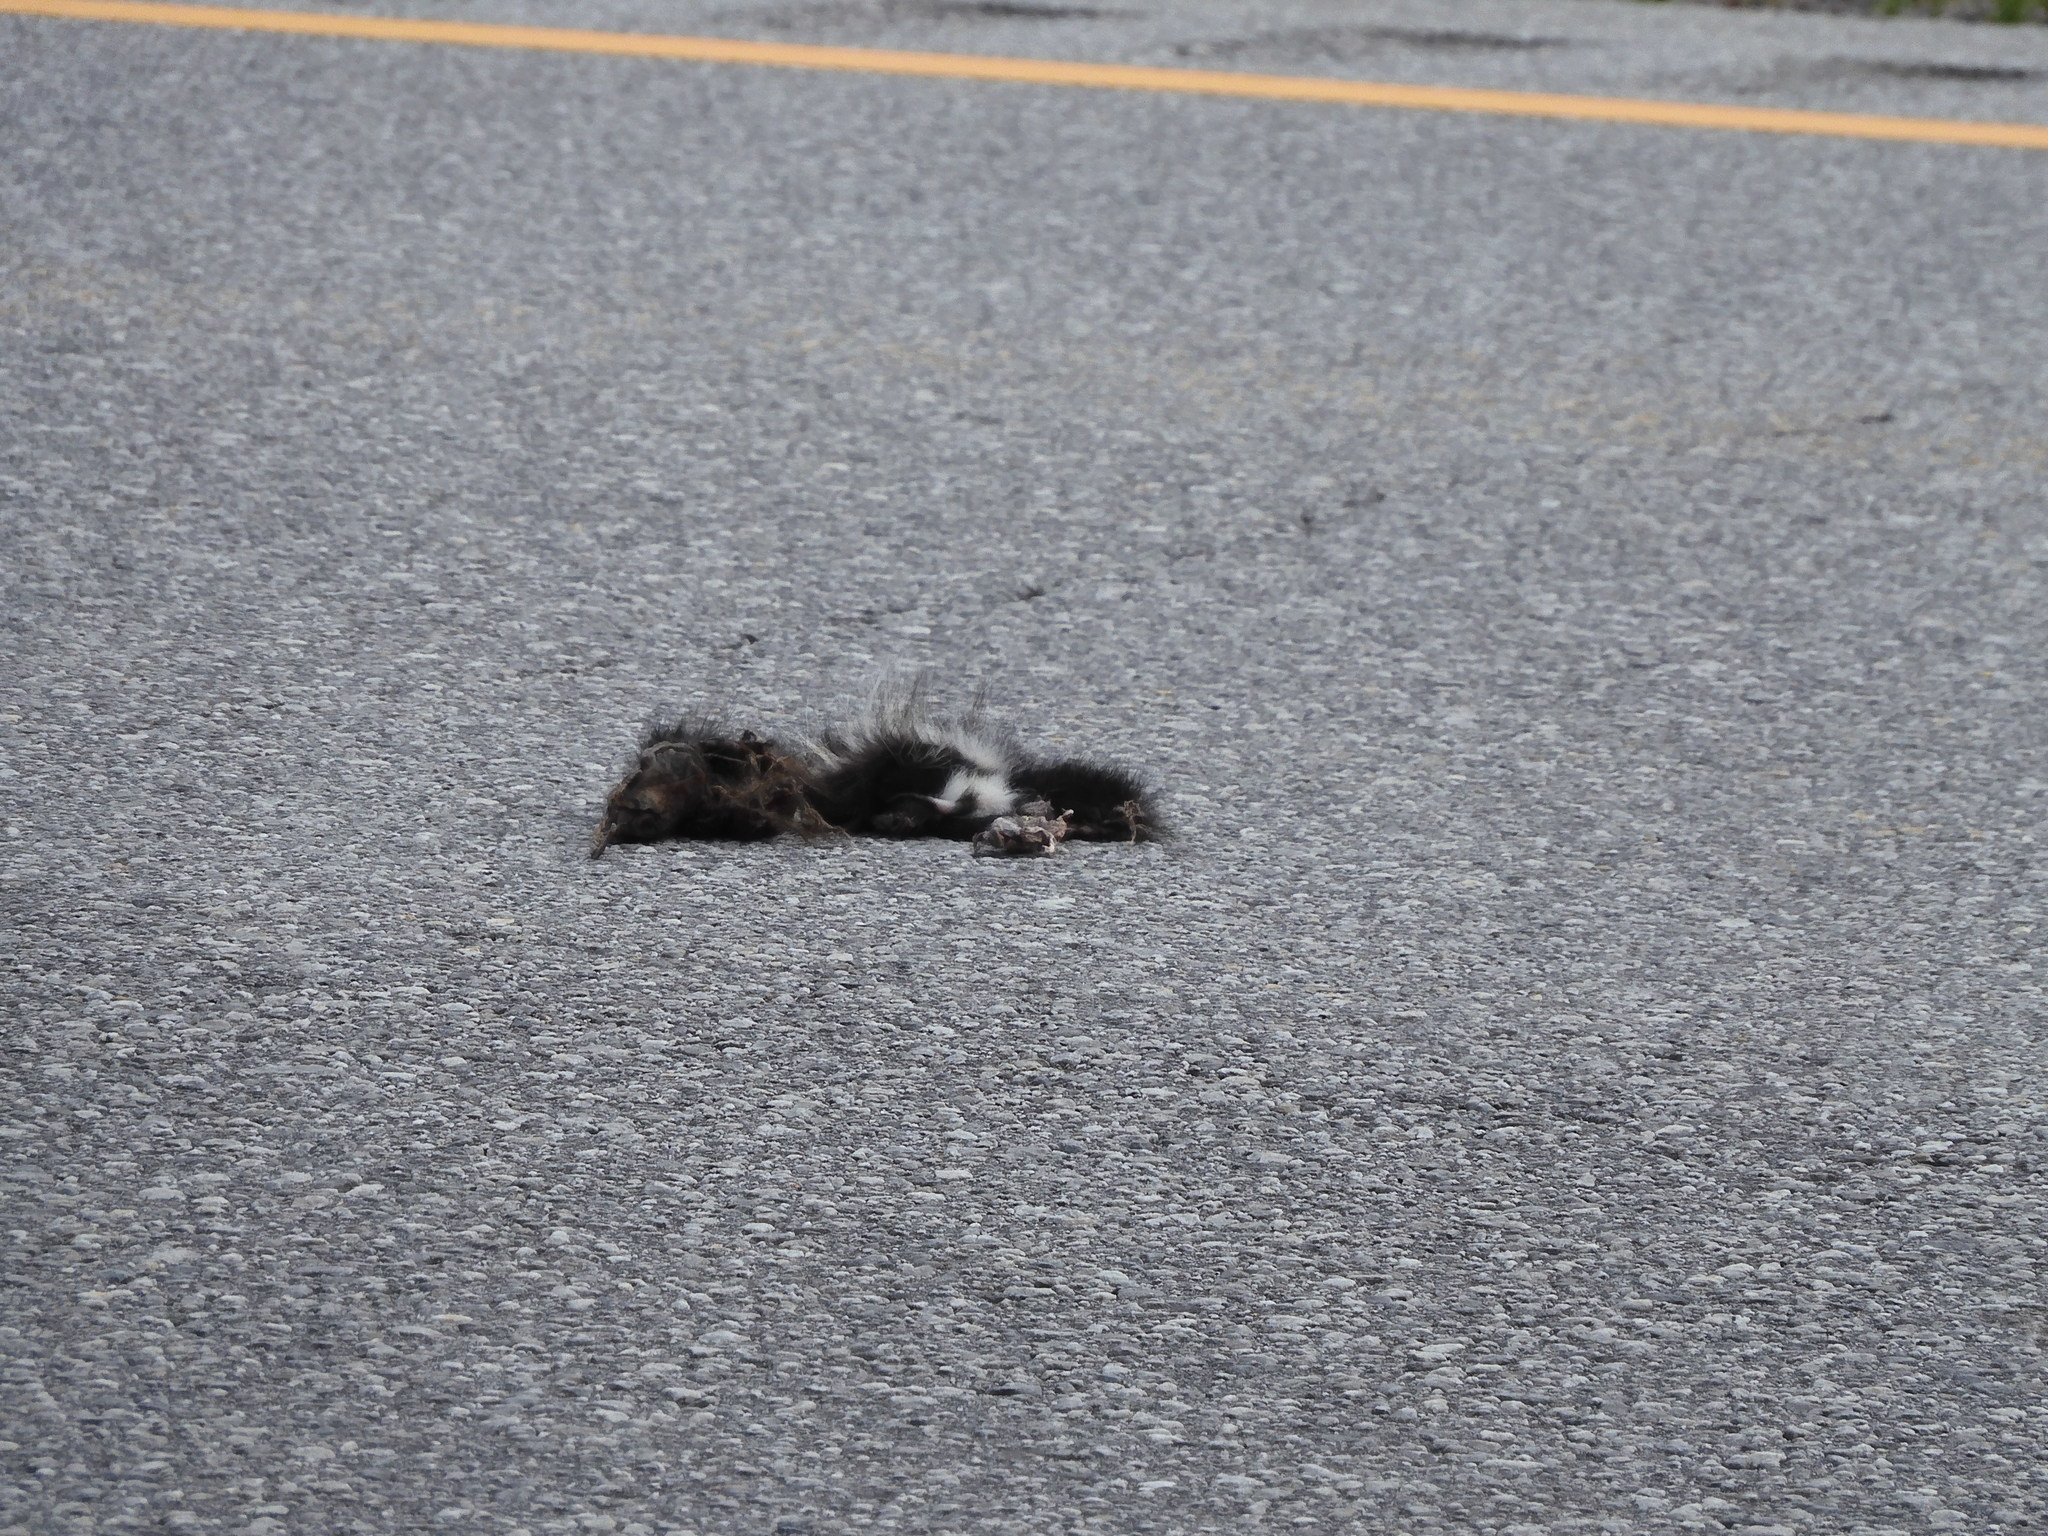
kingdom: Animalia
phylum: Chordata
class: Mammalia
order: Carnivora
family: Mephitidae
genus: Mephitis
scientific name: Mephitis mephitis
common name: Striped skunk
